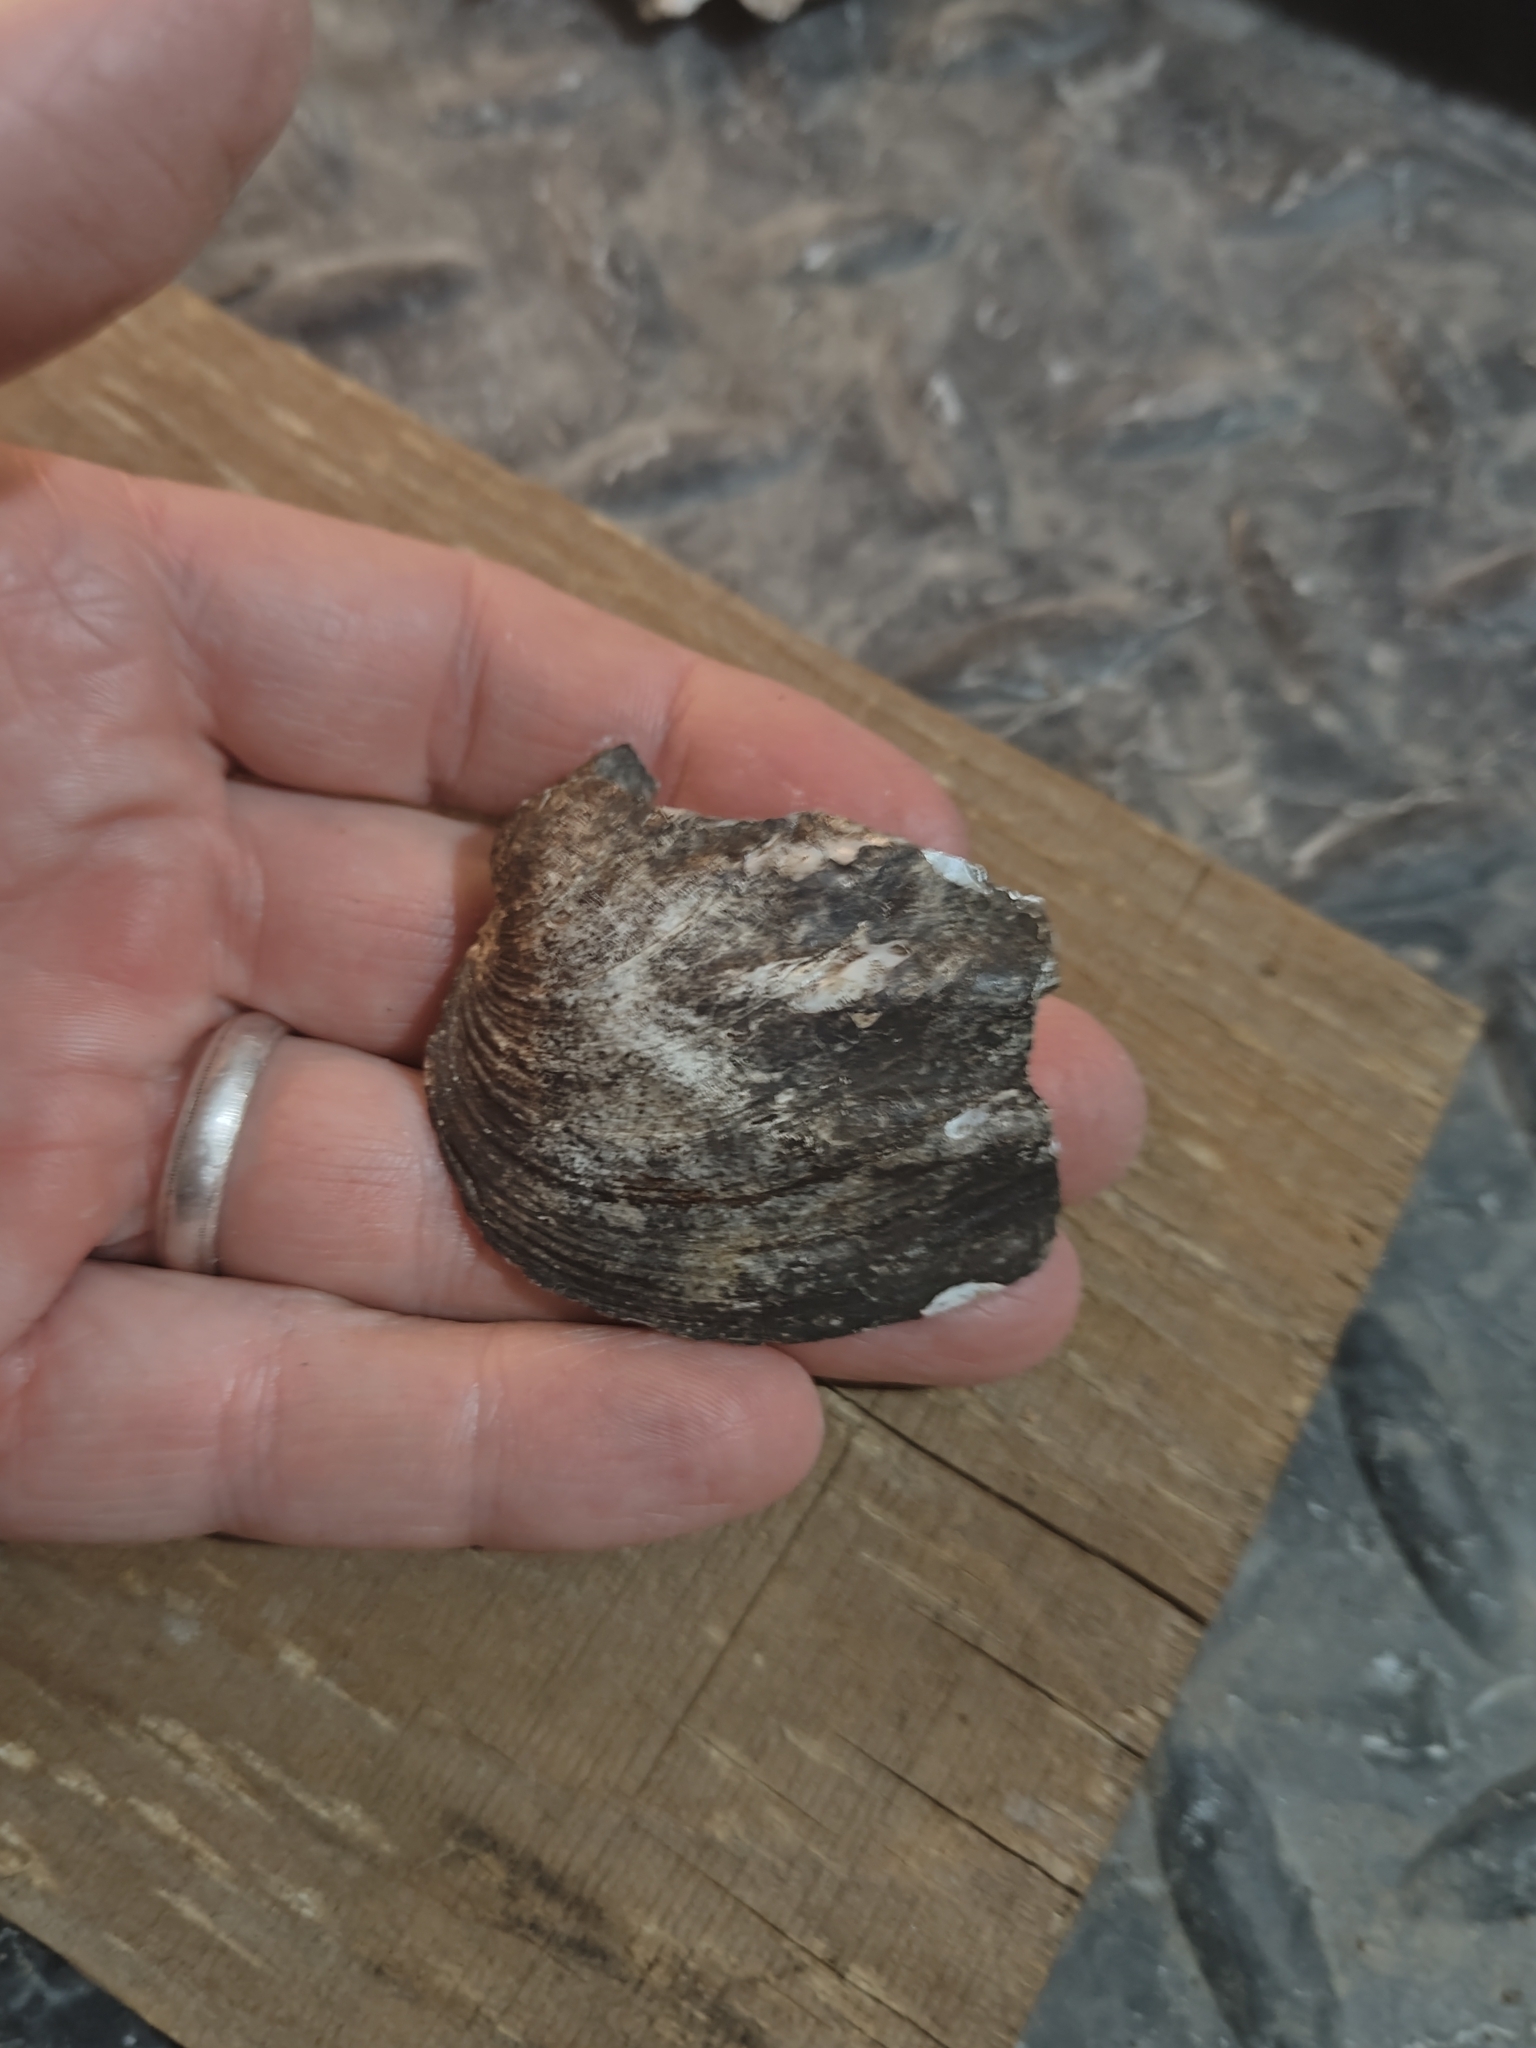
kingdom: Animalia
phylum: Mollusca
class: Bivalvia
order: Unionida
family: Unionidae
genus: Amblema
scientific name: Amblema plicata
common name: Threeridge
